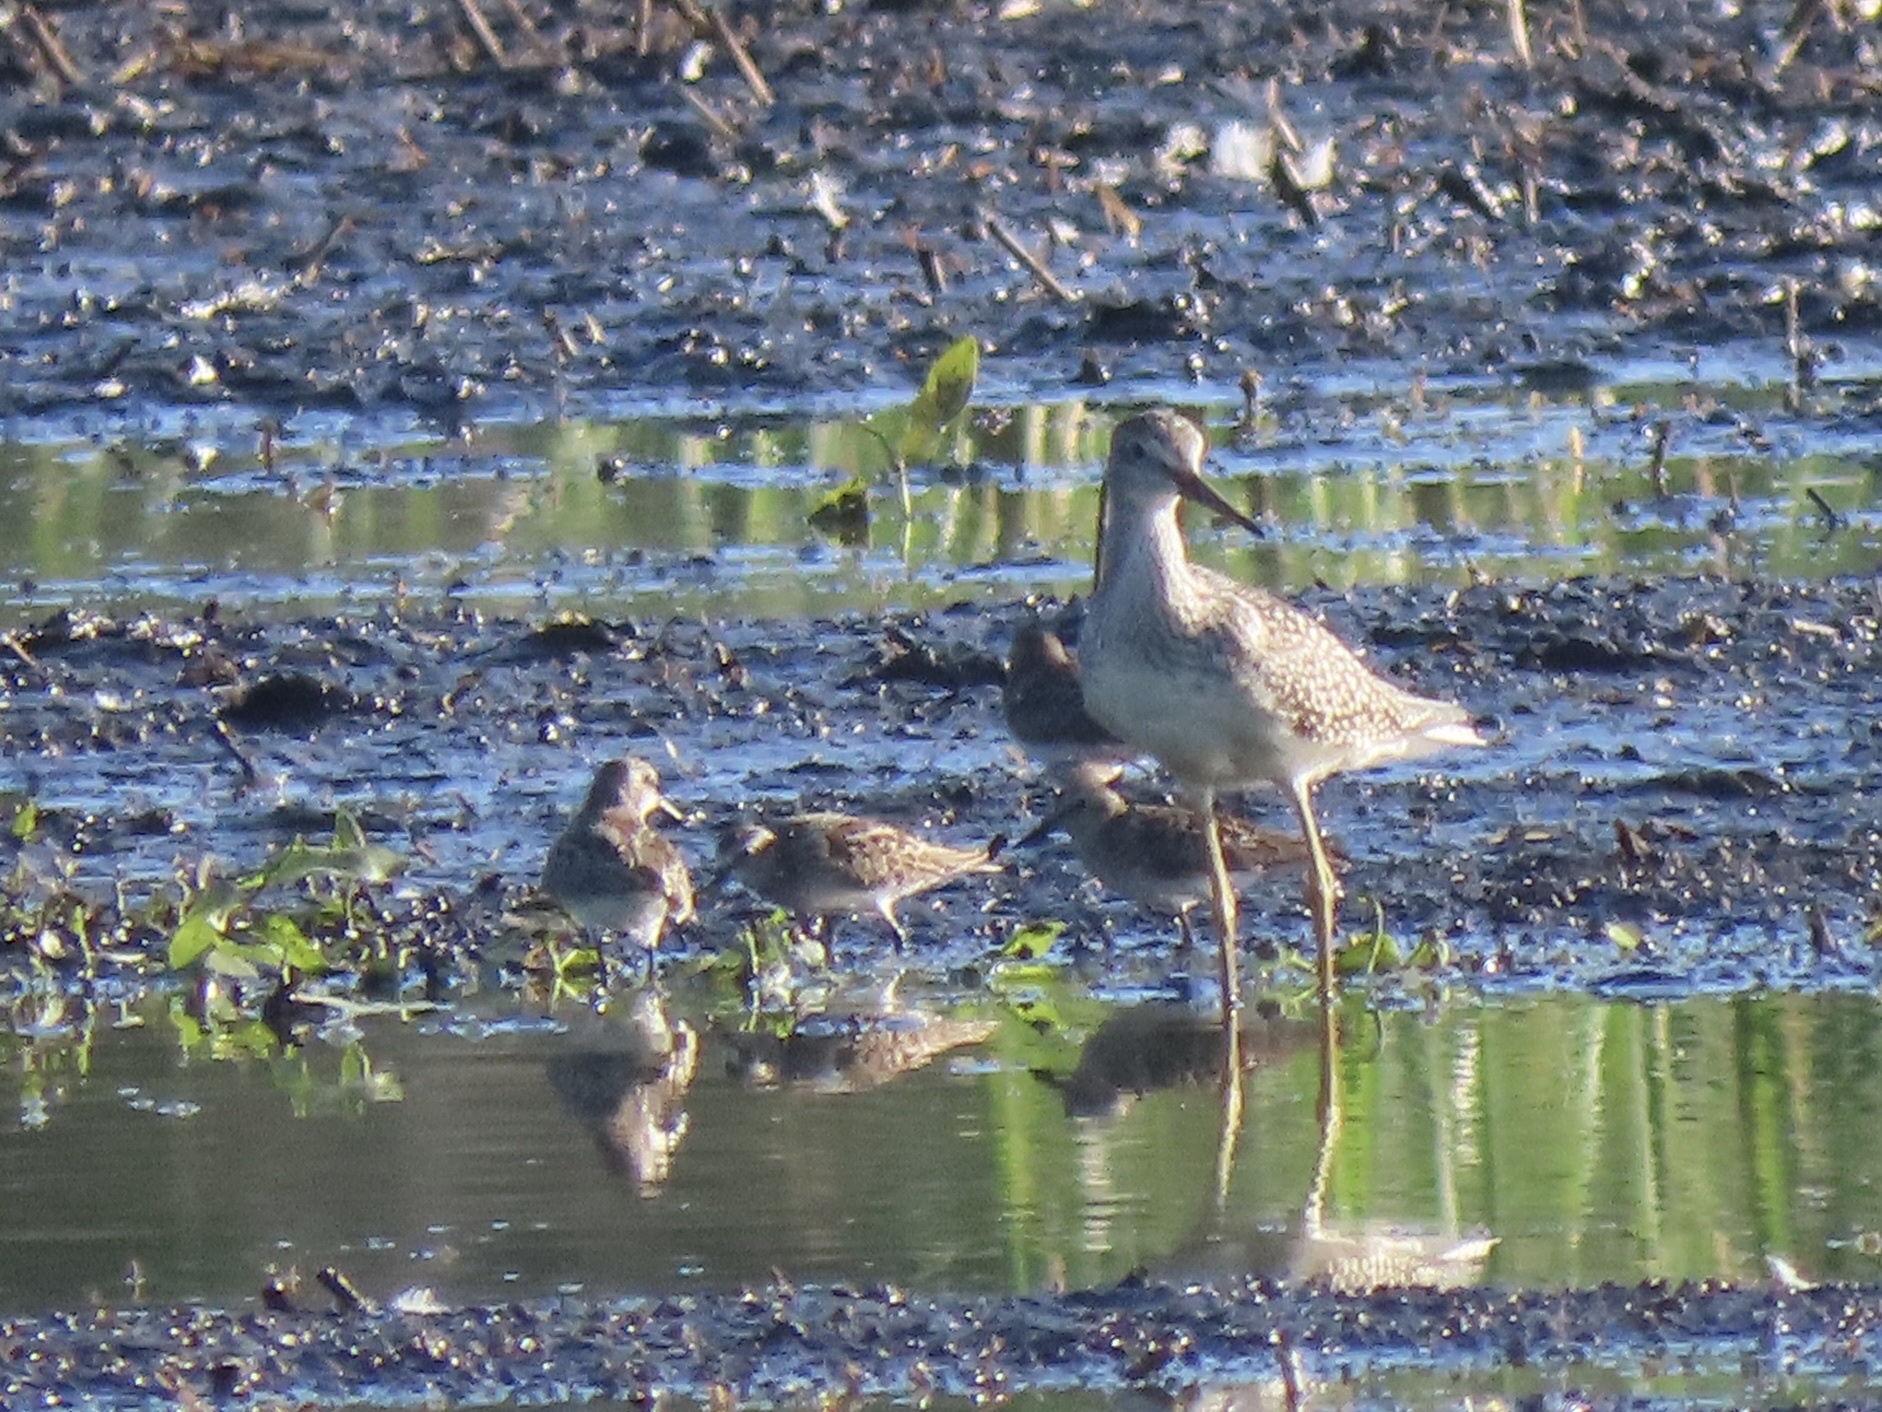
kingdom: Animalia
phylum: Chordata
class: Aves
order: Charadriiformes
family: Scolopacidae
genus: Tringa
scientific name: Tringa melanoleuca
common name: Greater yellowlegs
